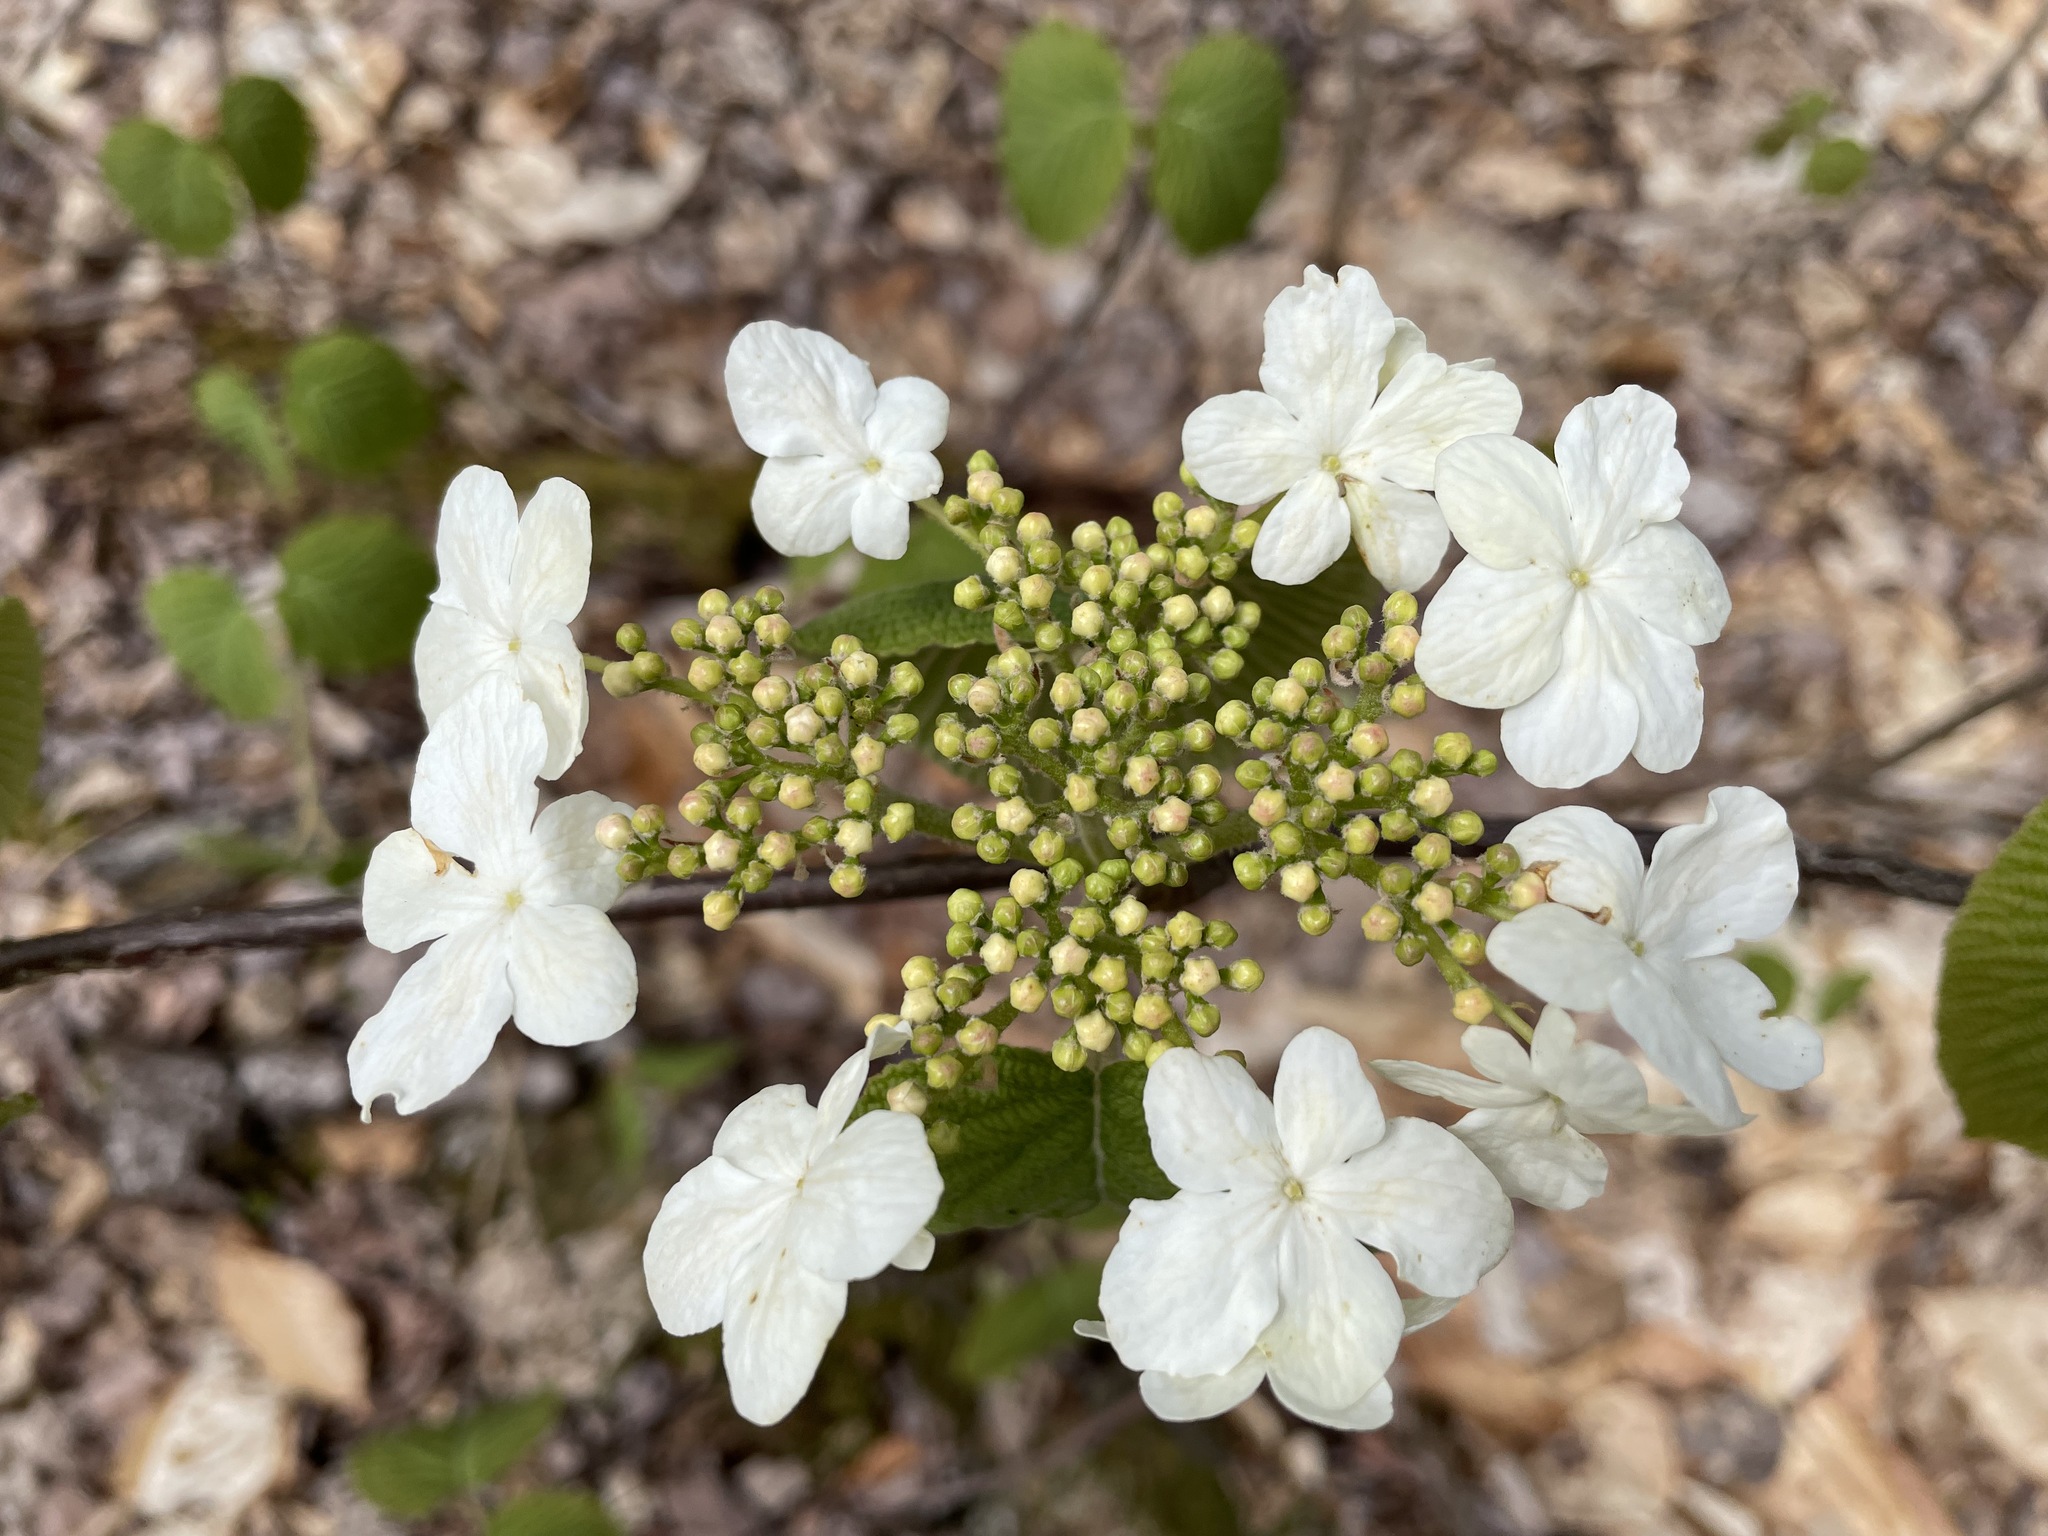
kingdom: Plantae
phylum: Tracheophyta
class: Magnoliopsida
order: Dipsacales
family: Viburnaceae
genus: Viburnum
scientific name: Viburnum lantanoides
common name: Hobblebush
